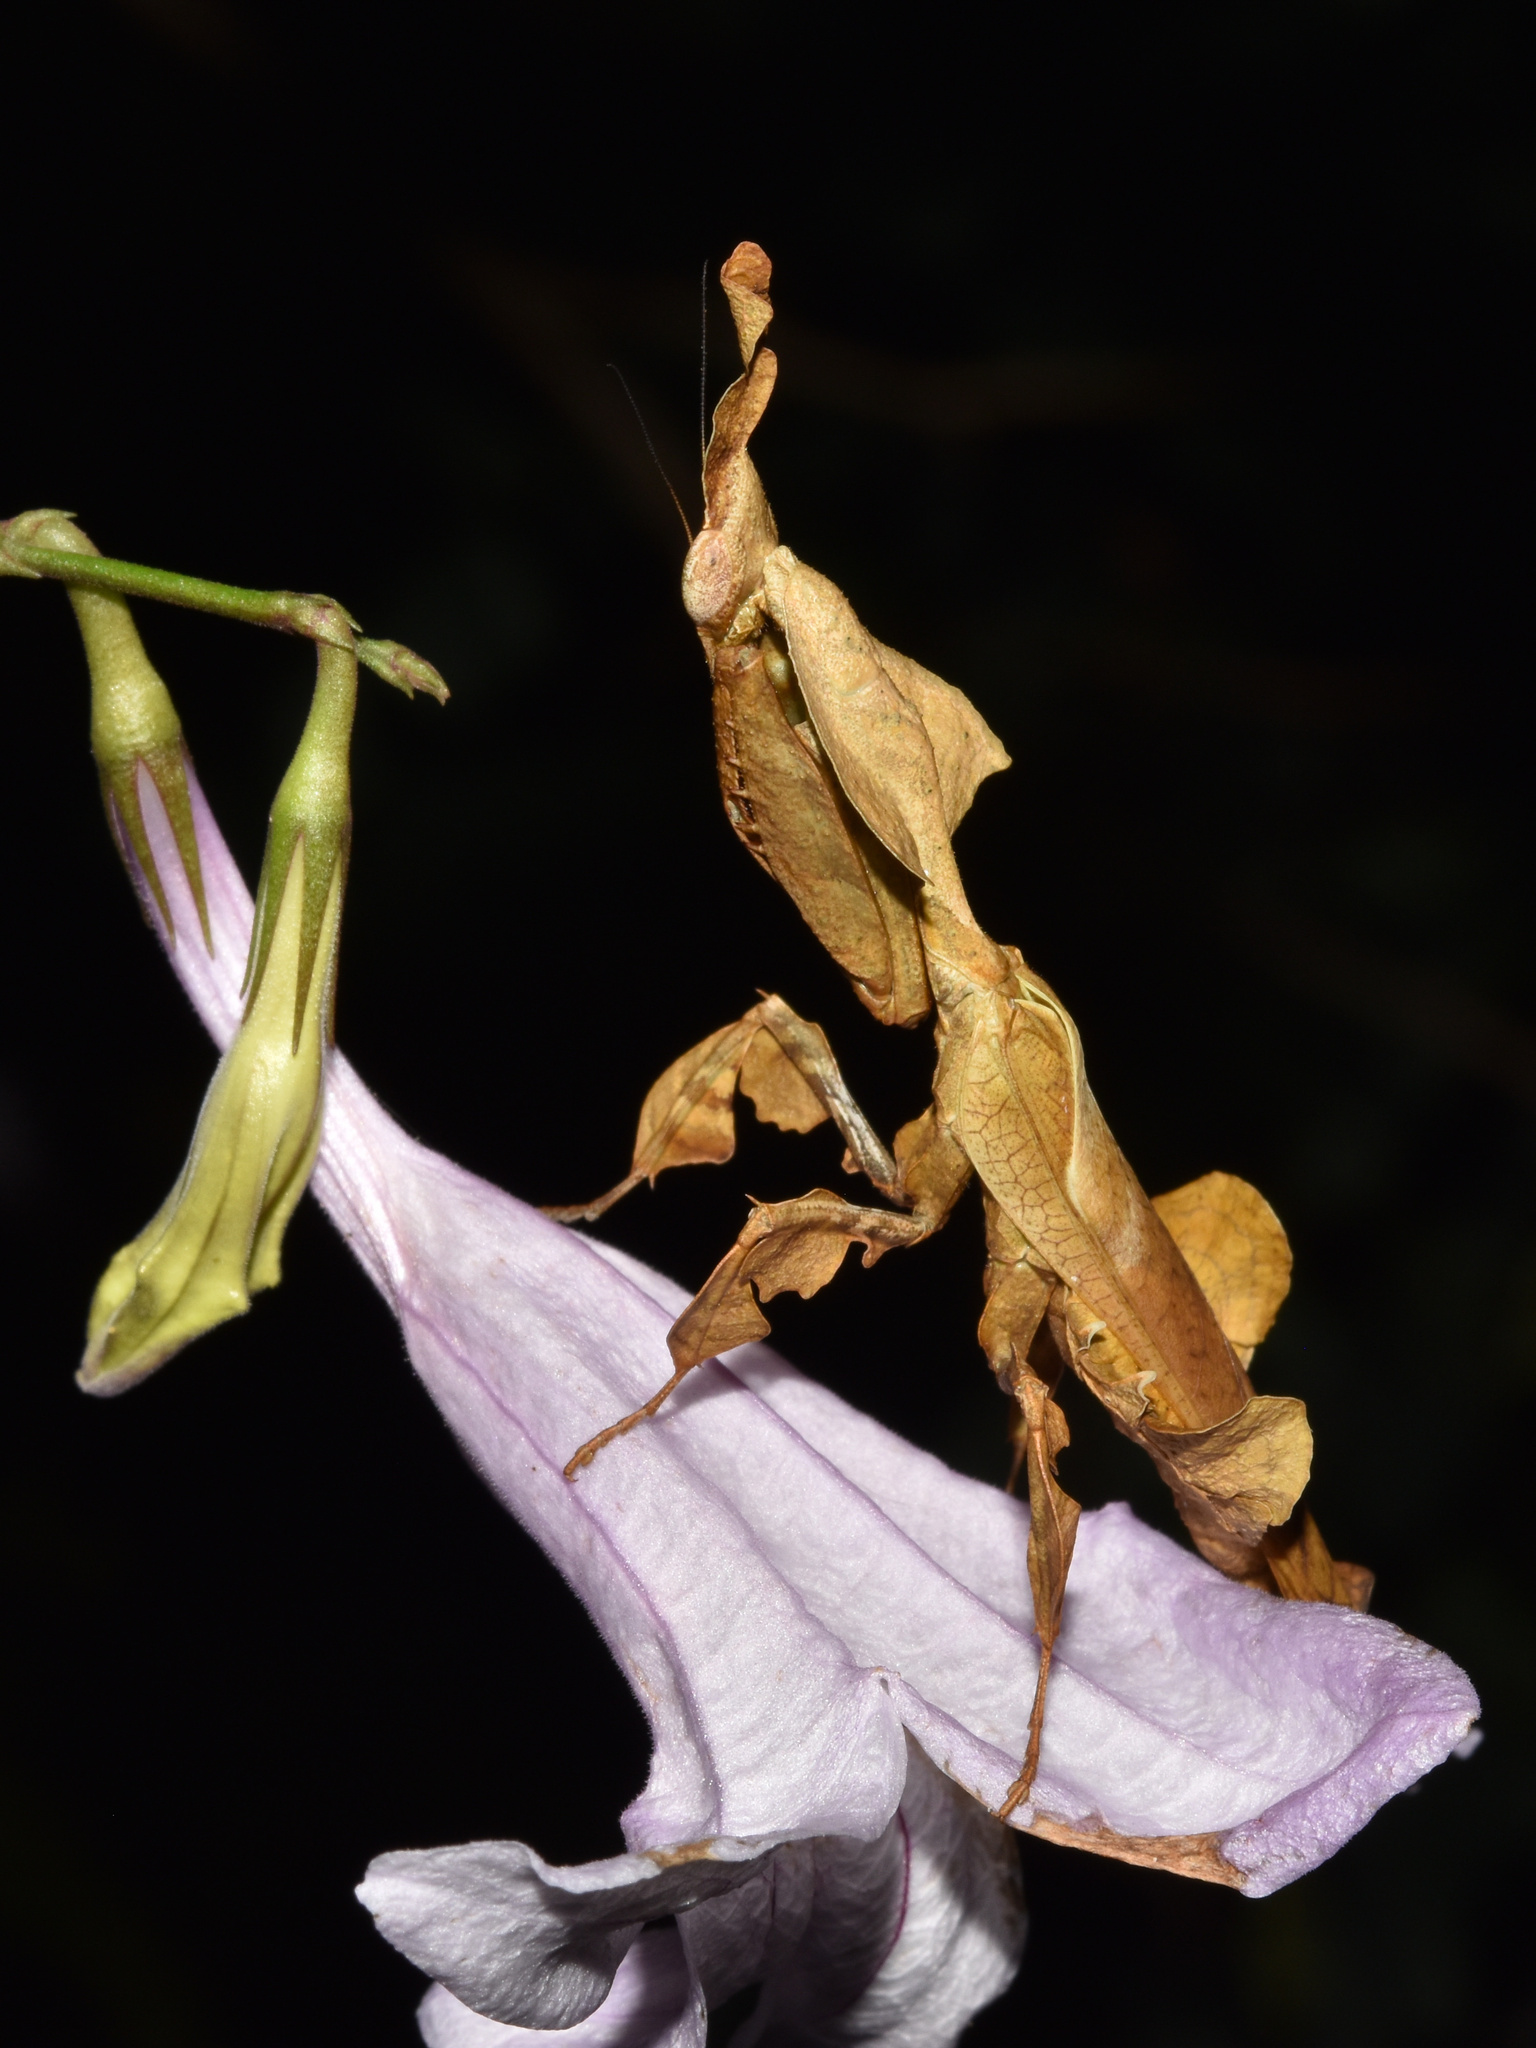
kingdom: Animalia
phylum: Arthropoda
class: Insecta
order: Mantodea
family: Hymenopodidae
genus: Phyllocrania
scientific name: Phyllocrania paradoxa
